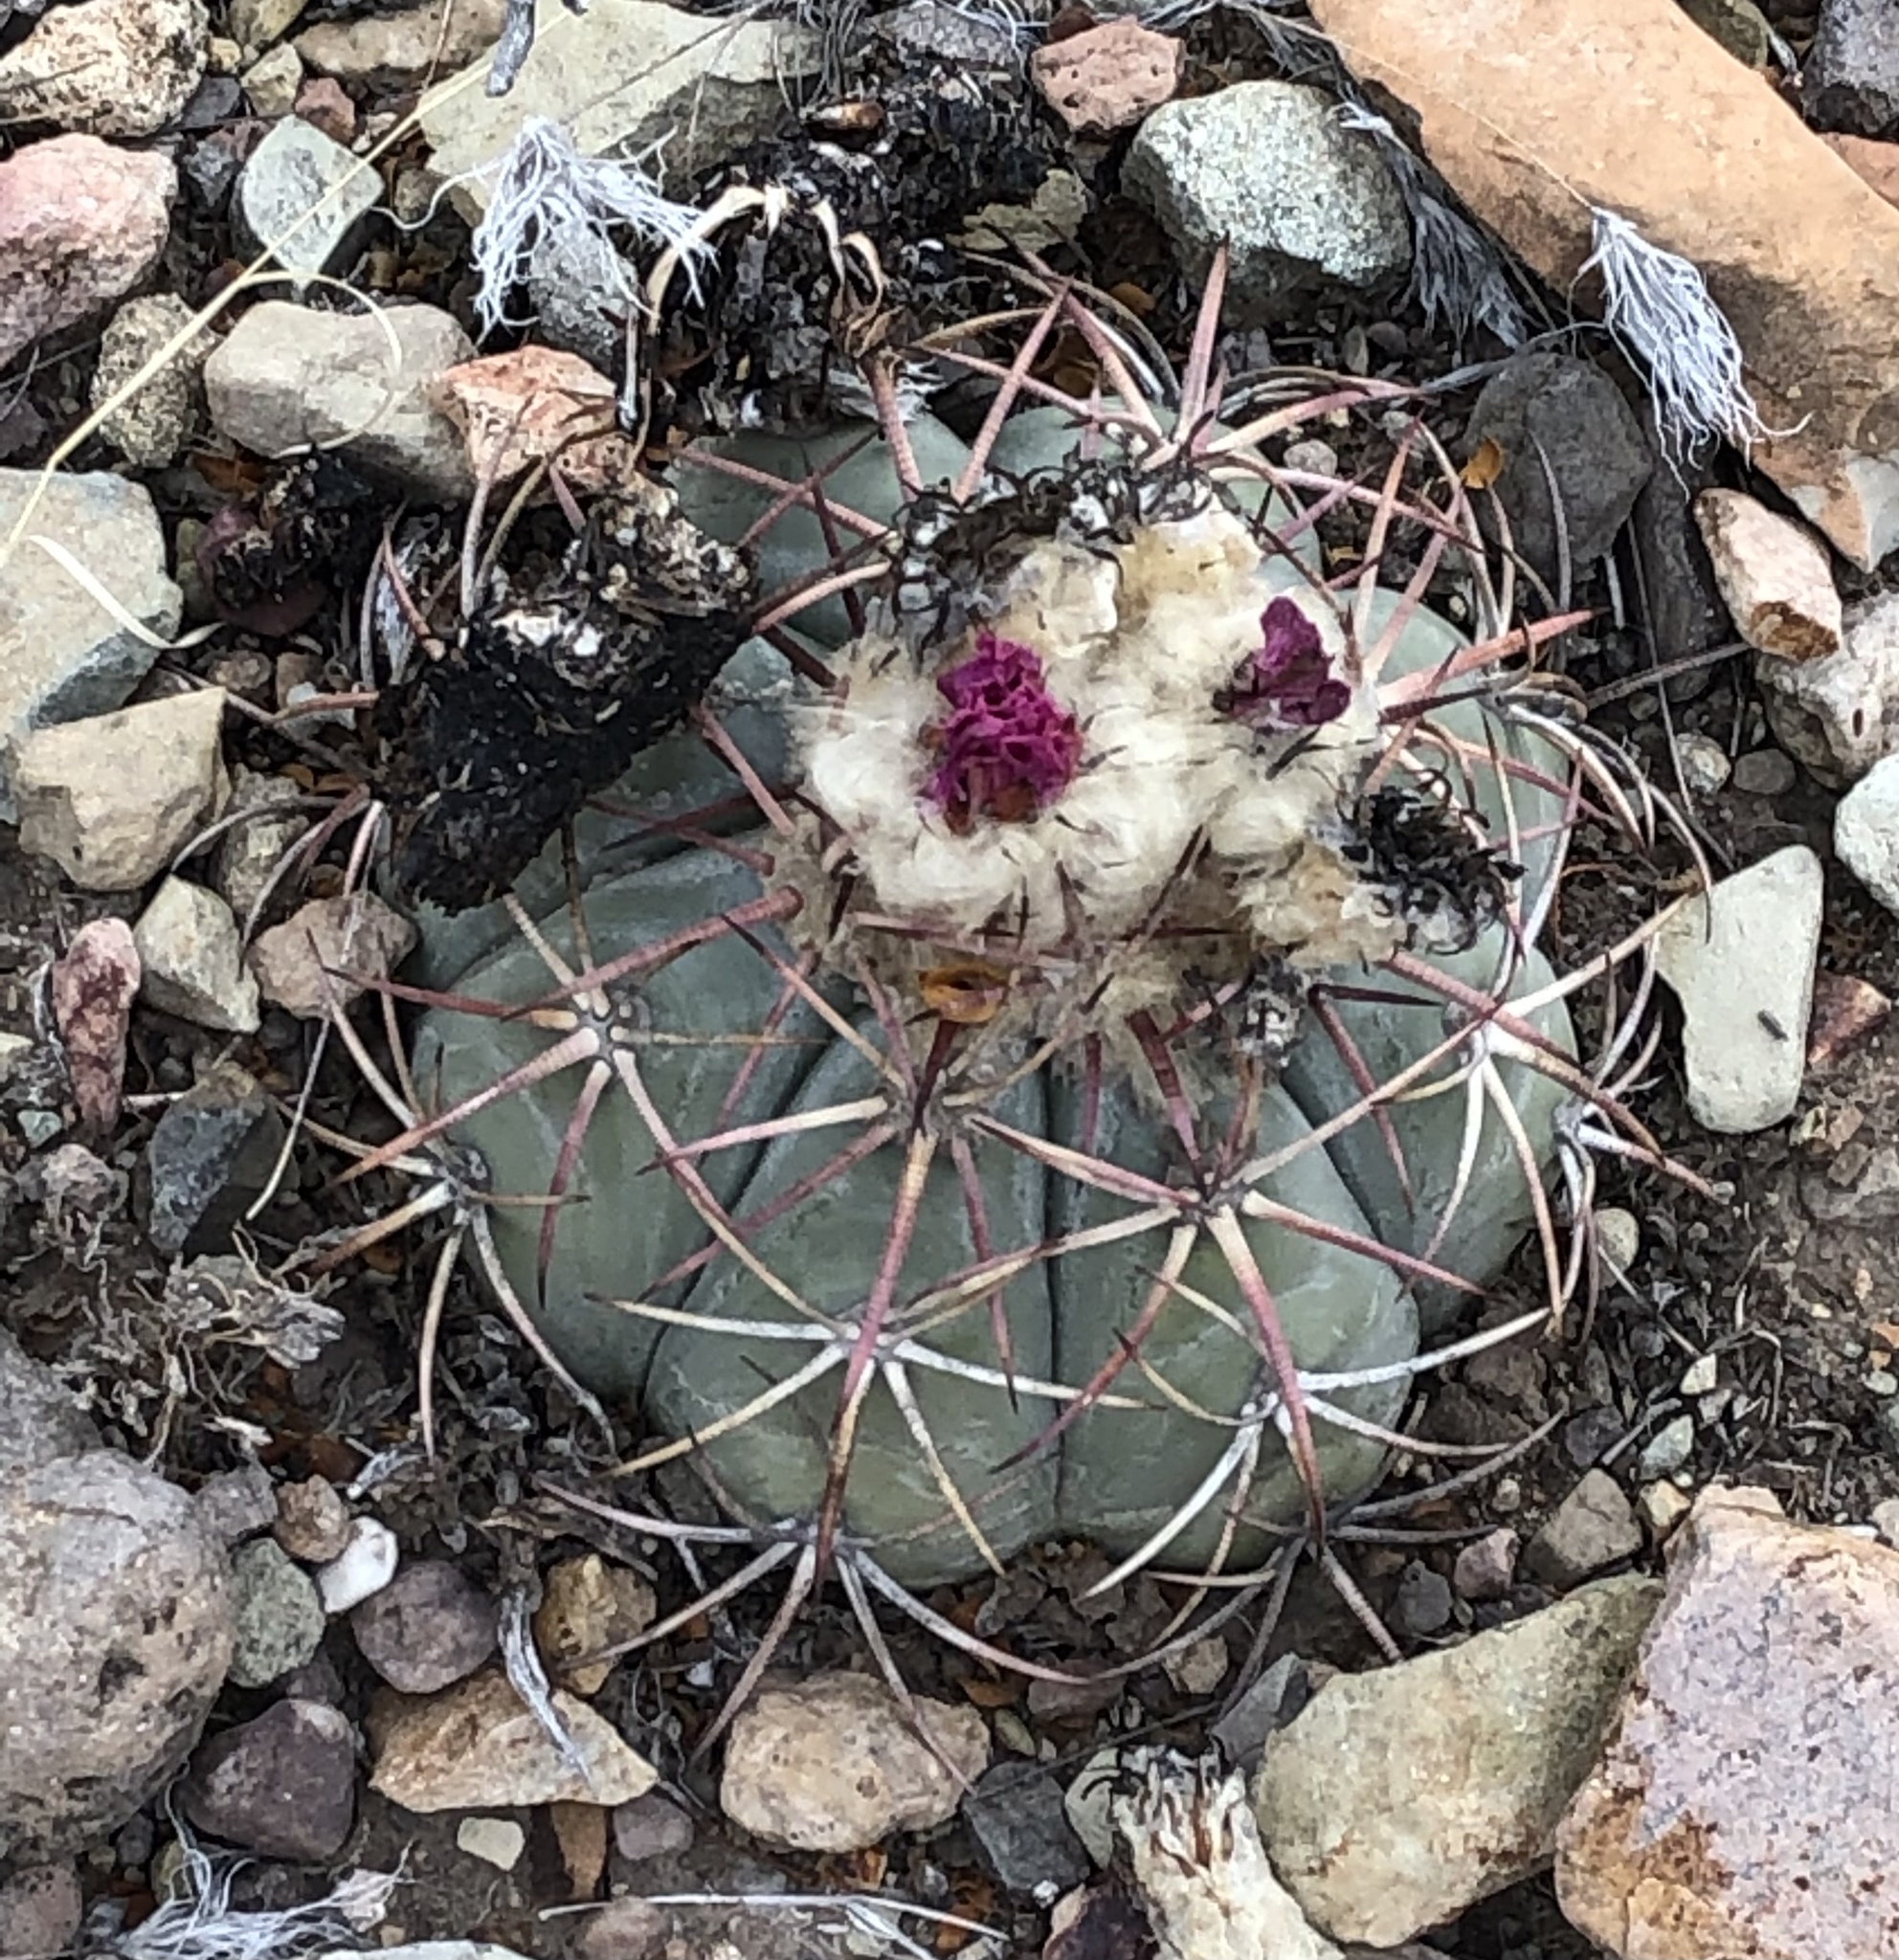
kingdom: Plantae
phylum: Tracheophyta
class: Magnoliopsida
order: Caryophyllales
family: Cactaceae
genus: Echinocactus
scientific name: Echinocactus horizonthalonius
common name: Devilshead
